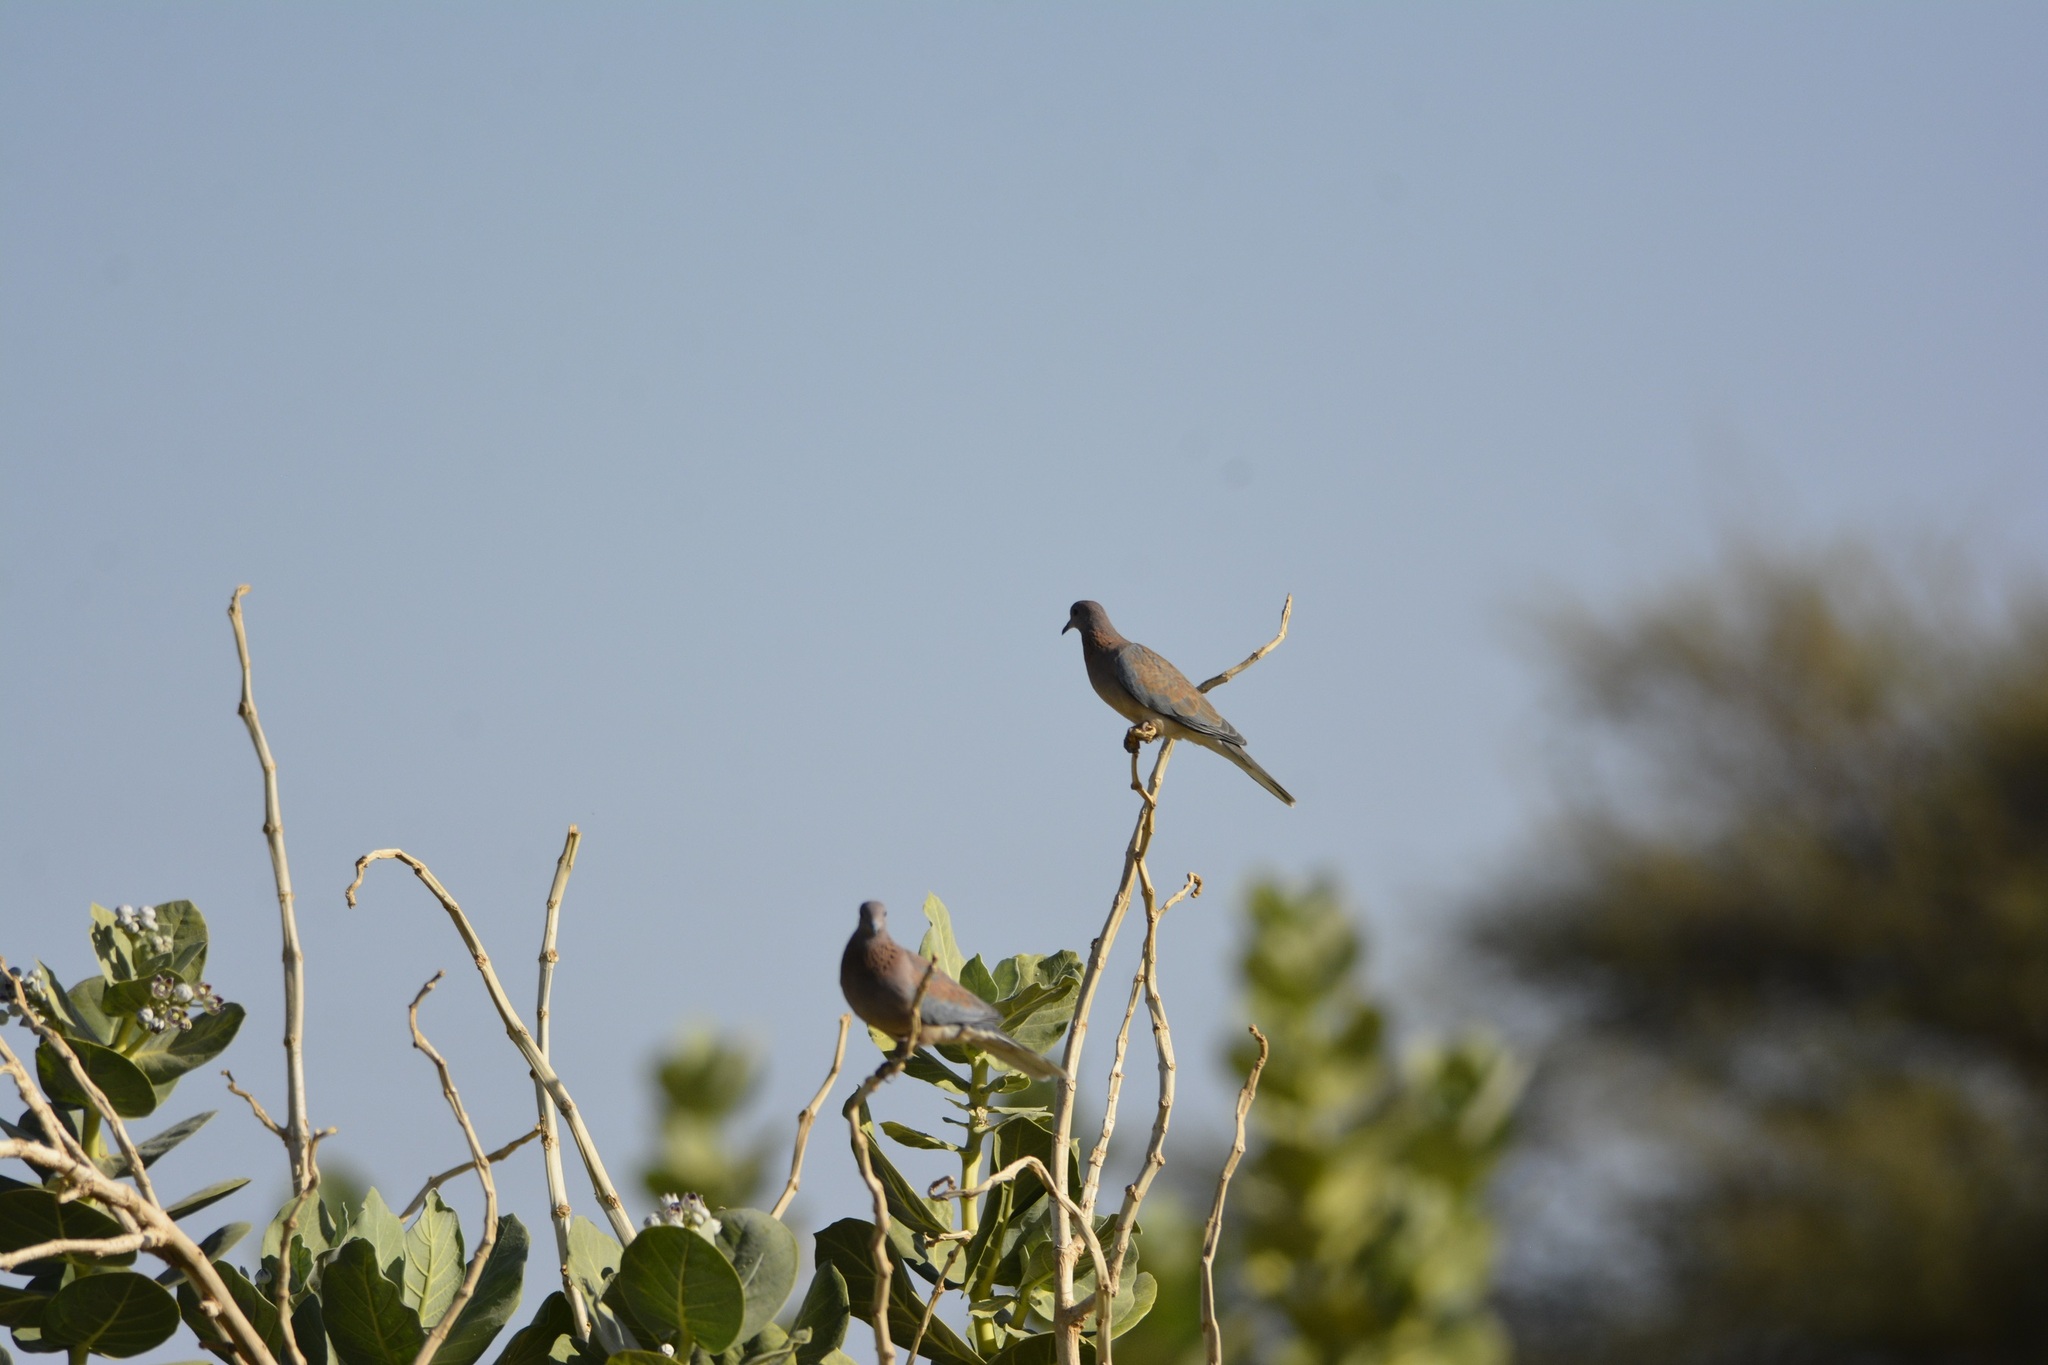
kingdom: Animalia
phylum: Chordata
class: Aves
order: Columbiformes
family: Columbidae
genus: Spilopelia
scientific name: Spilopelia senegalensis
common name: Laughing dove
